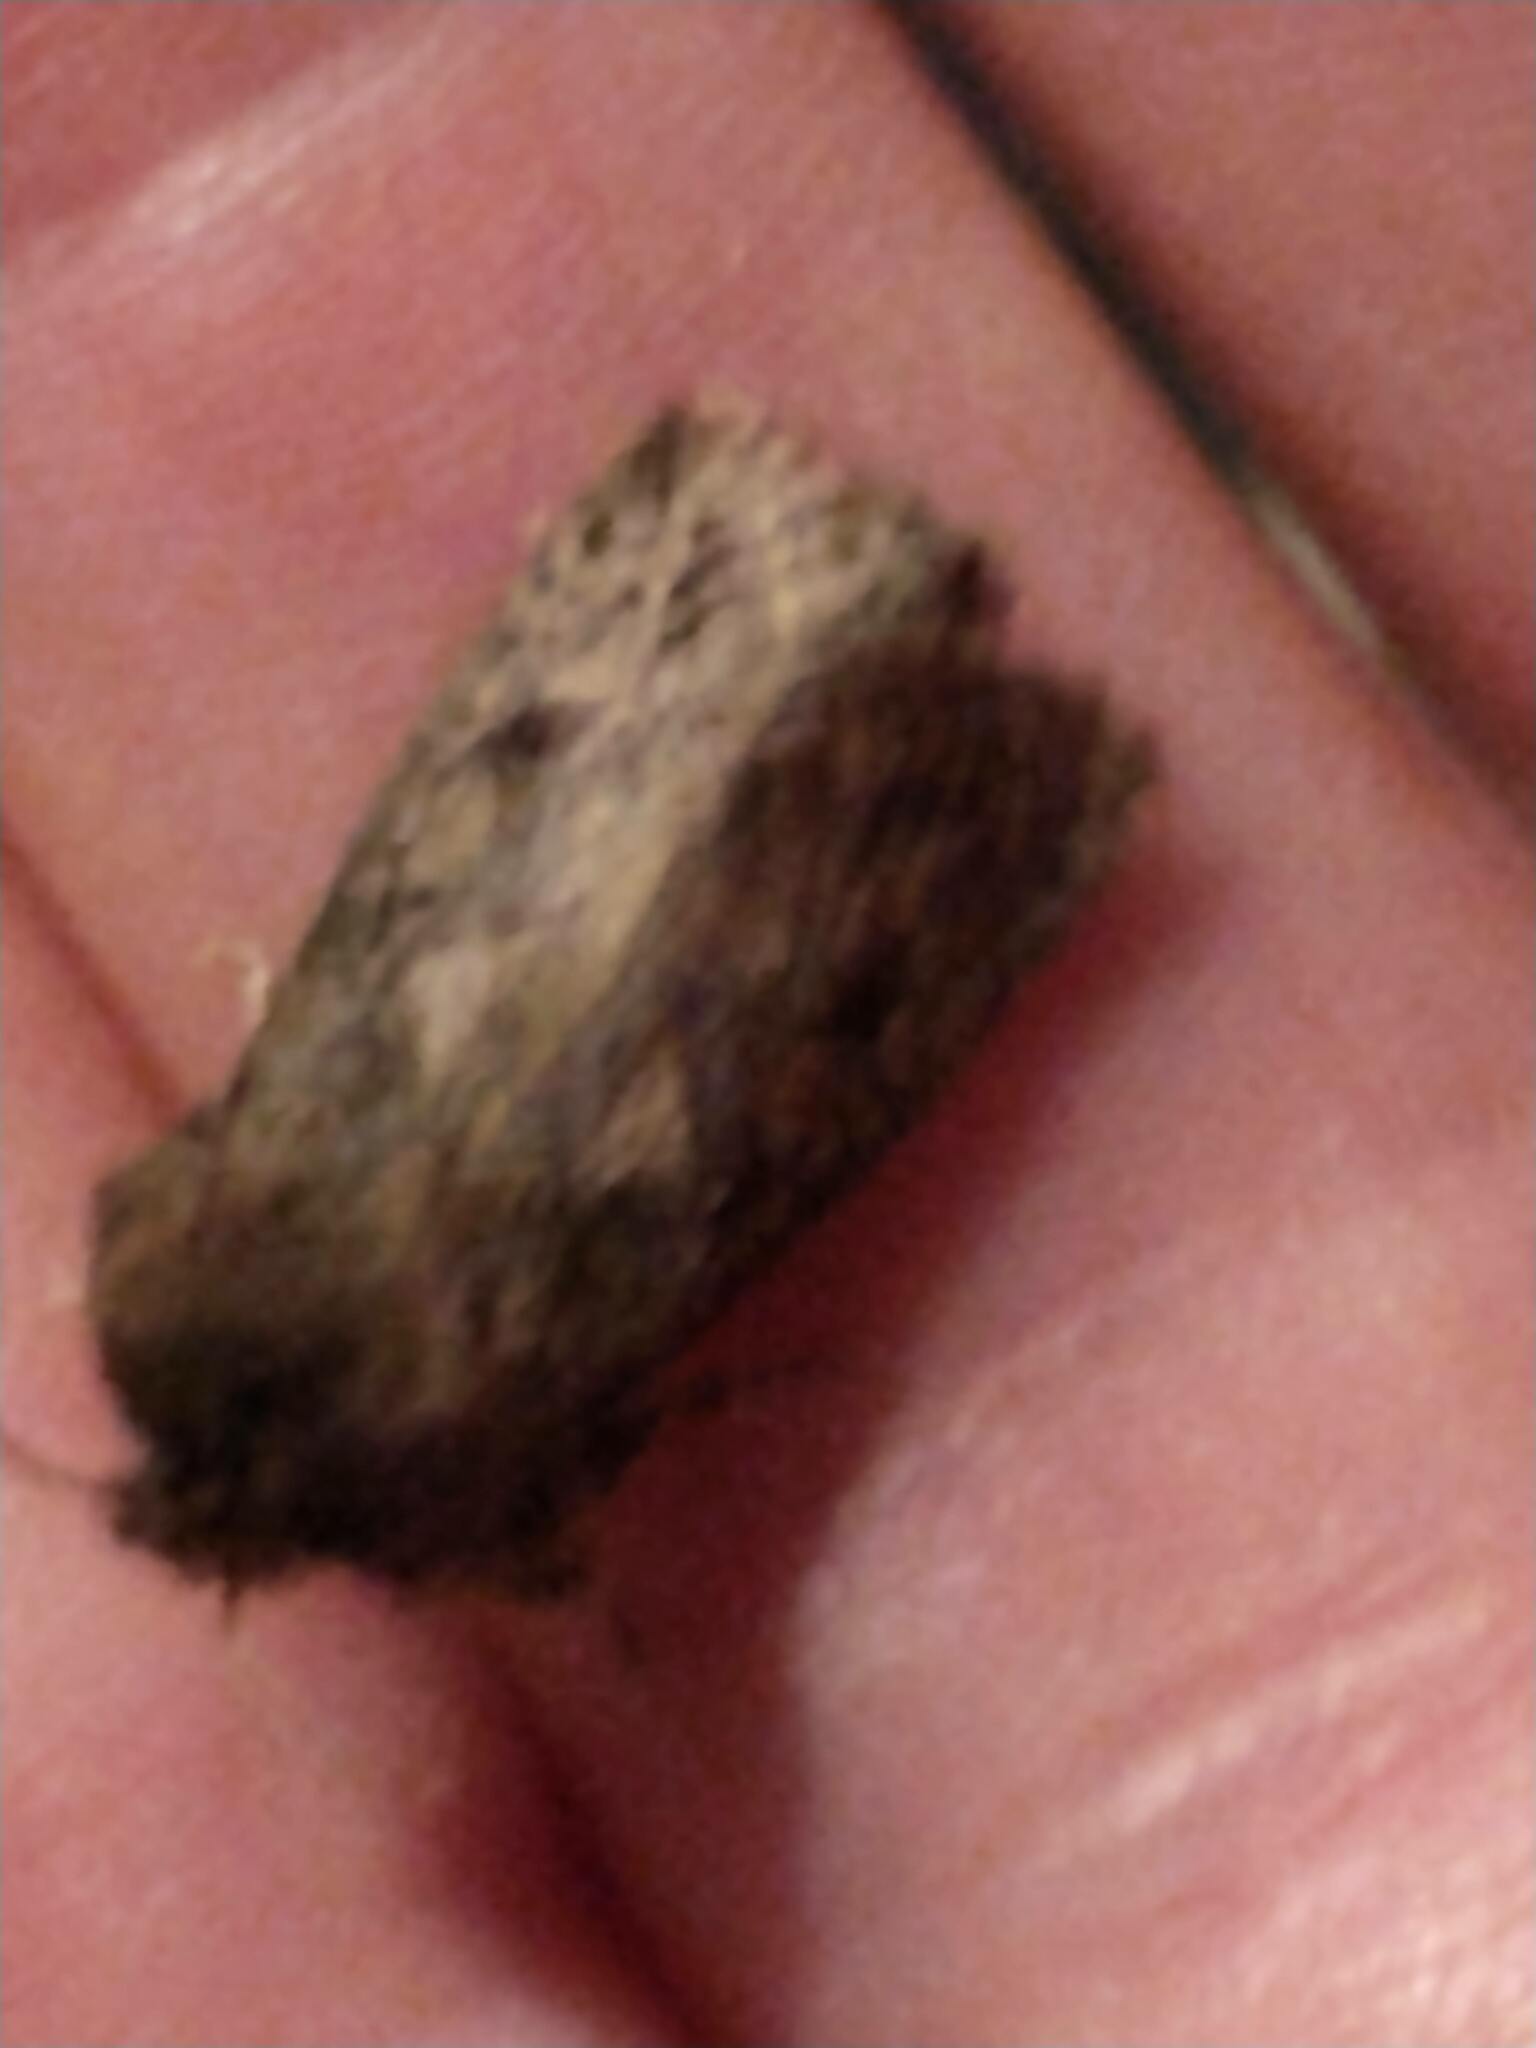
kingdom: Animalia
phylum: Arthropoda
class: Insecta
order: Lepidoptera
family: Tineidae
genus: Acrolophus
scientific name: Acrolophus arcanella
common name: Arcane grass tubeworm moth
